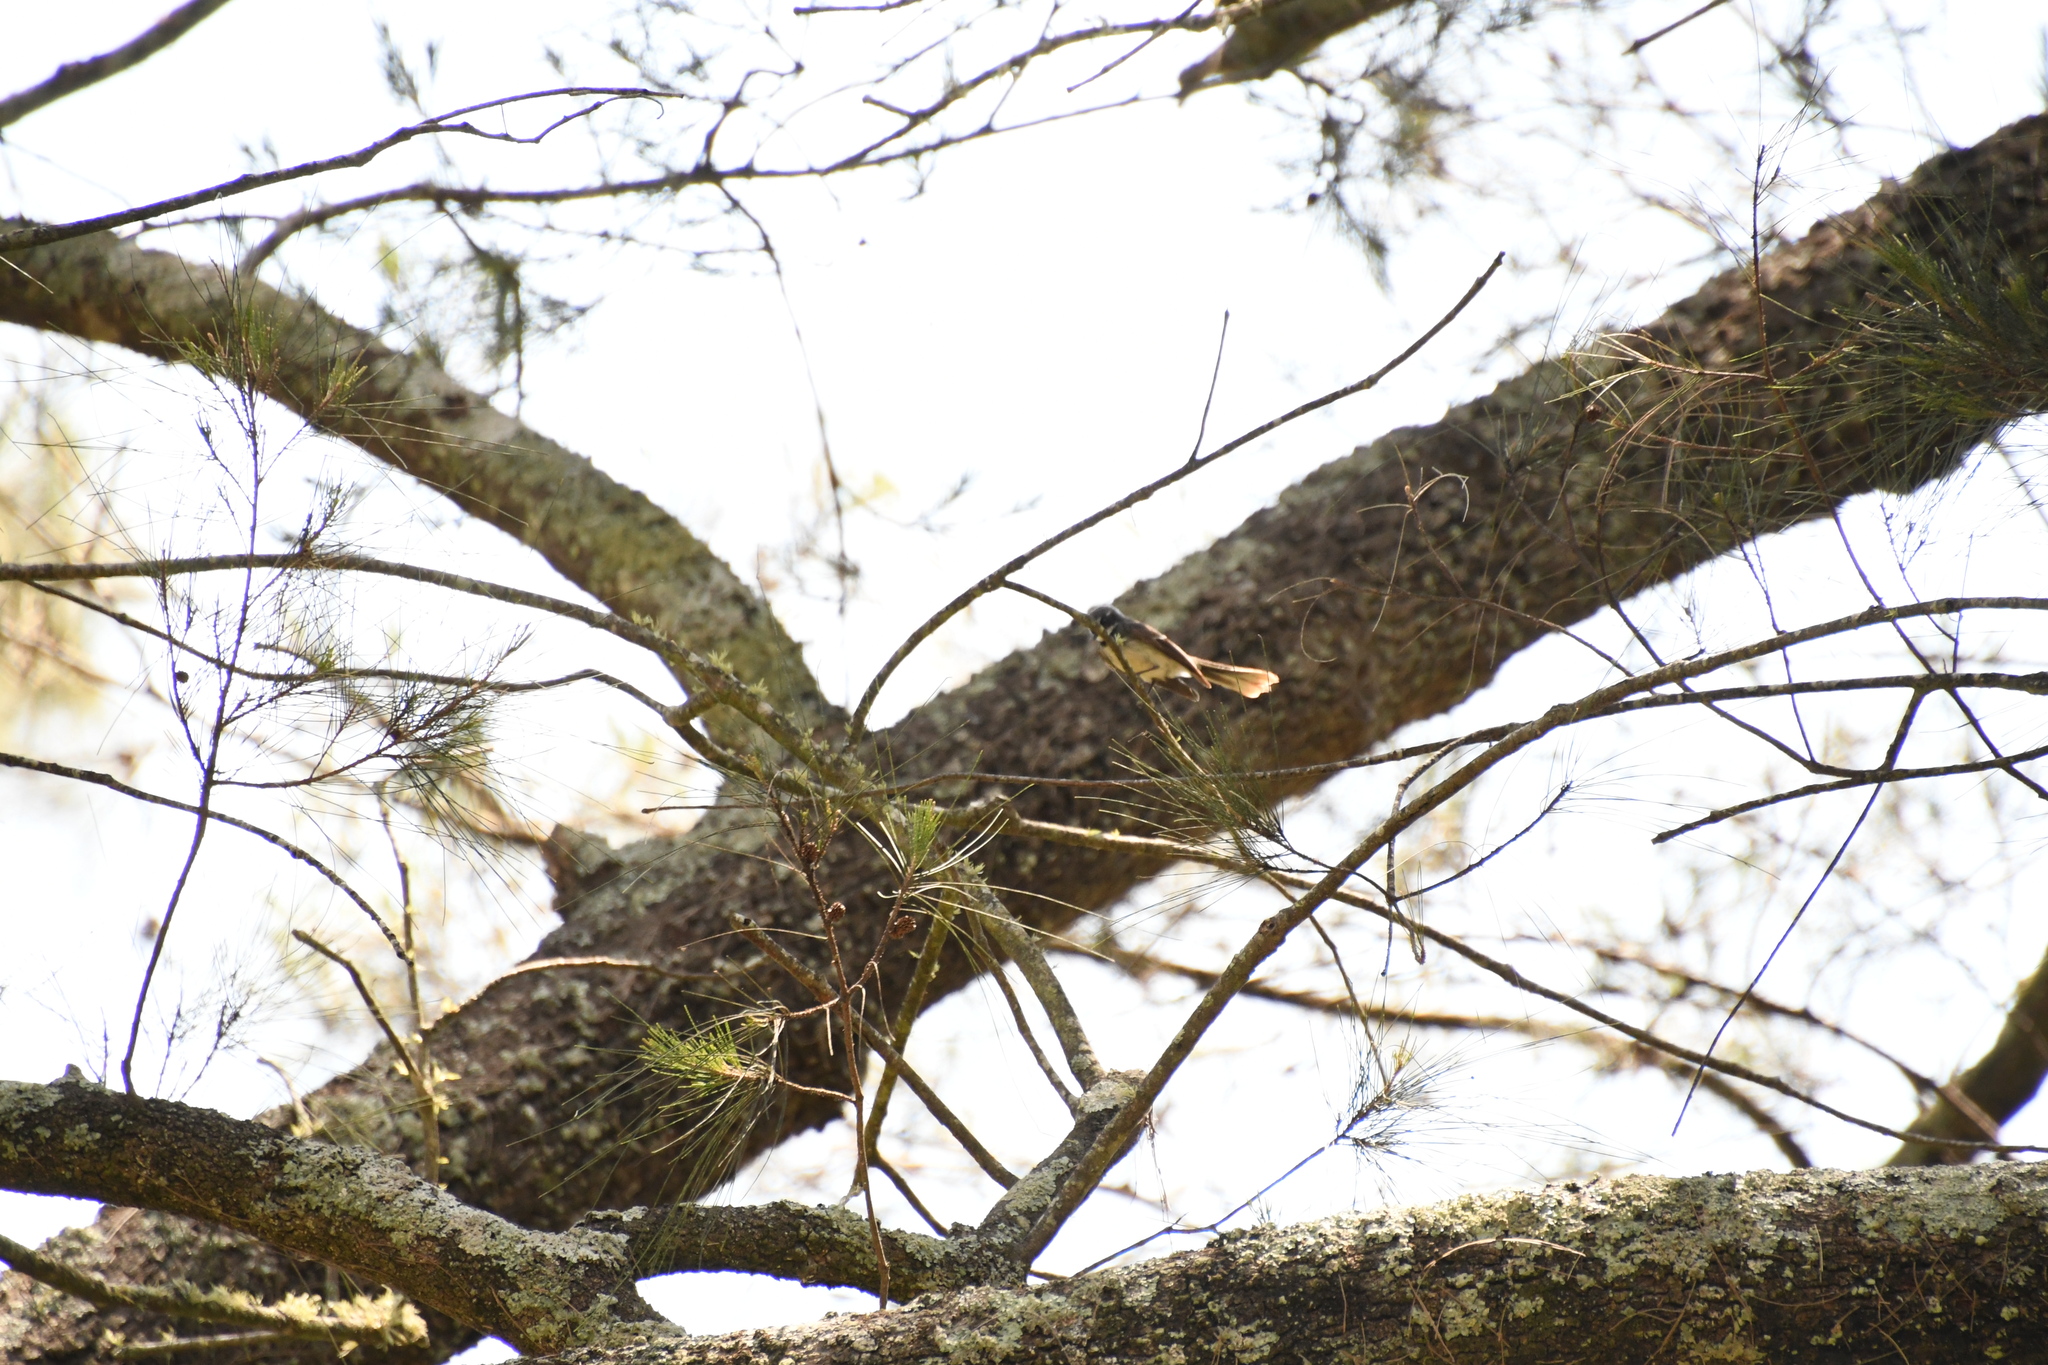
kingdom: Animalia
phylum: Chordata
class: Aves
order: Passeriformes
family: Rhipiduridae
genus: Rhipidura
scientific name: Rhipidura albiscapa
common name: Grey fantail
